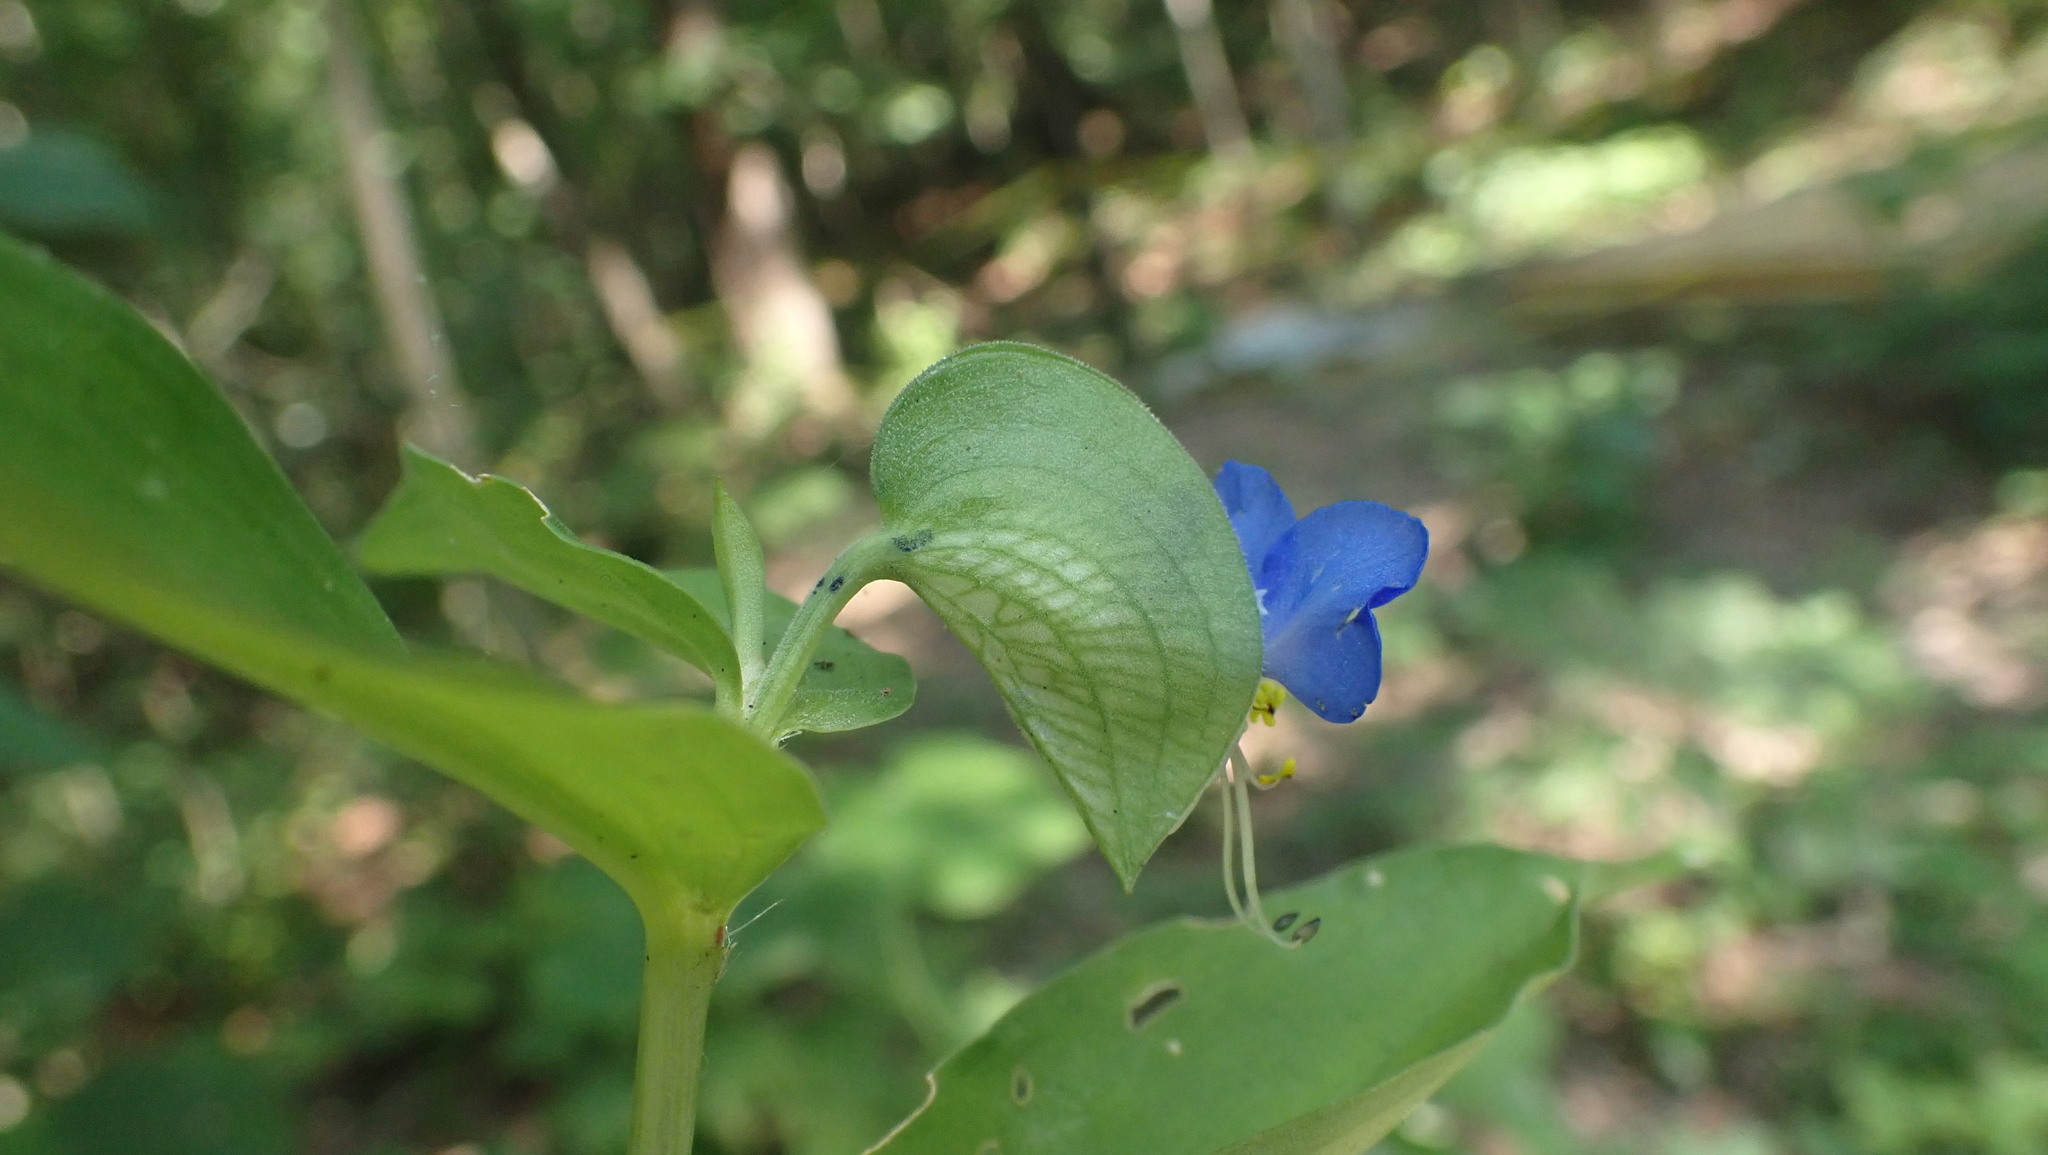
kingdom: Plantae
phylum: Tracheophyta
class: Liliopsida
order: Commelinales
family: Commelinaceae
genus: Commelina
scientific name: Commelina communis
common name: Asiatic dayflower
